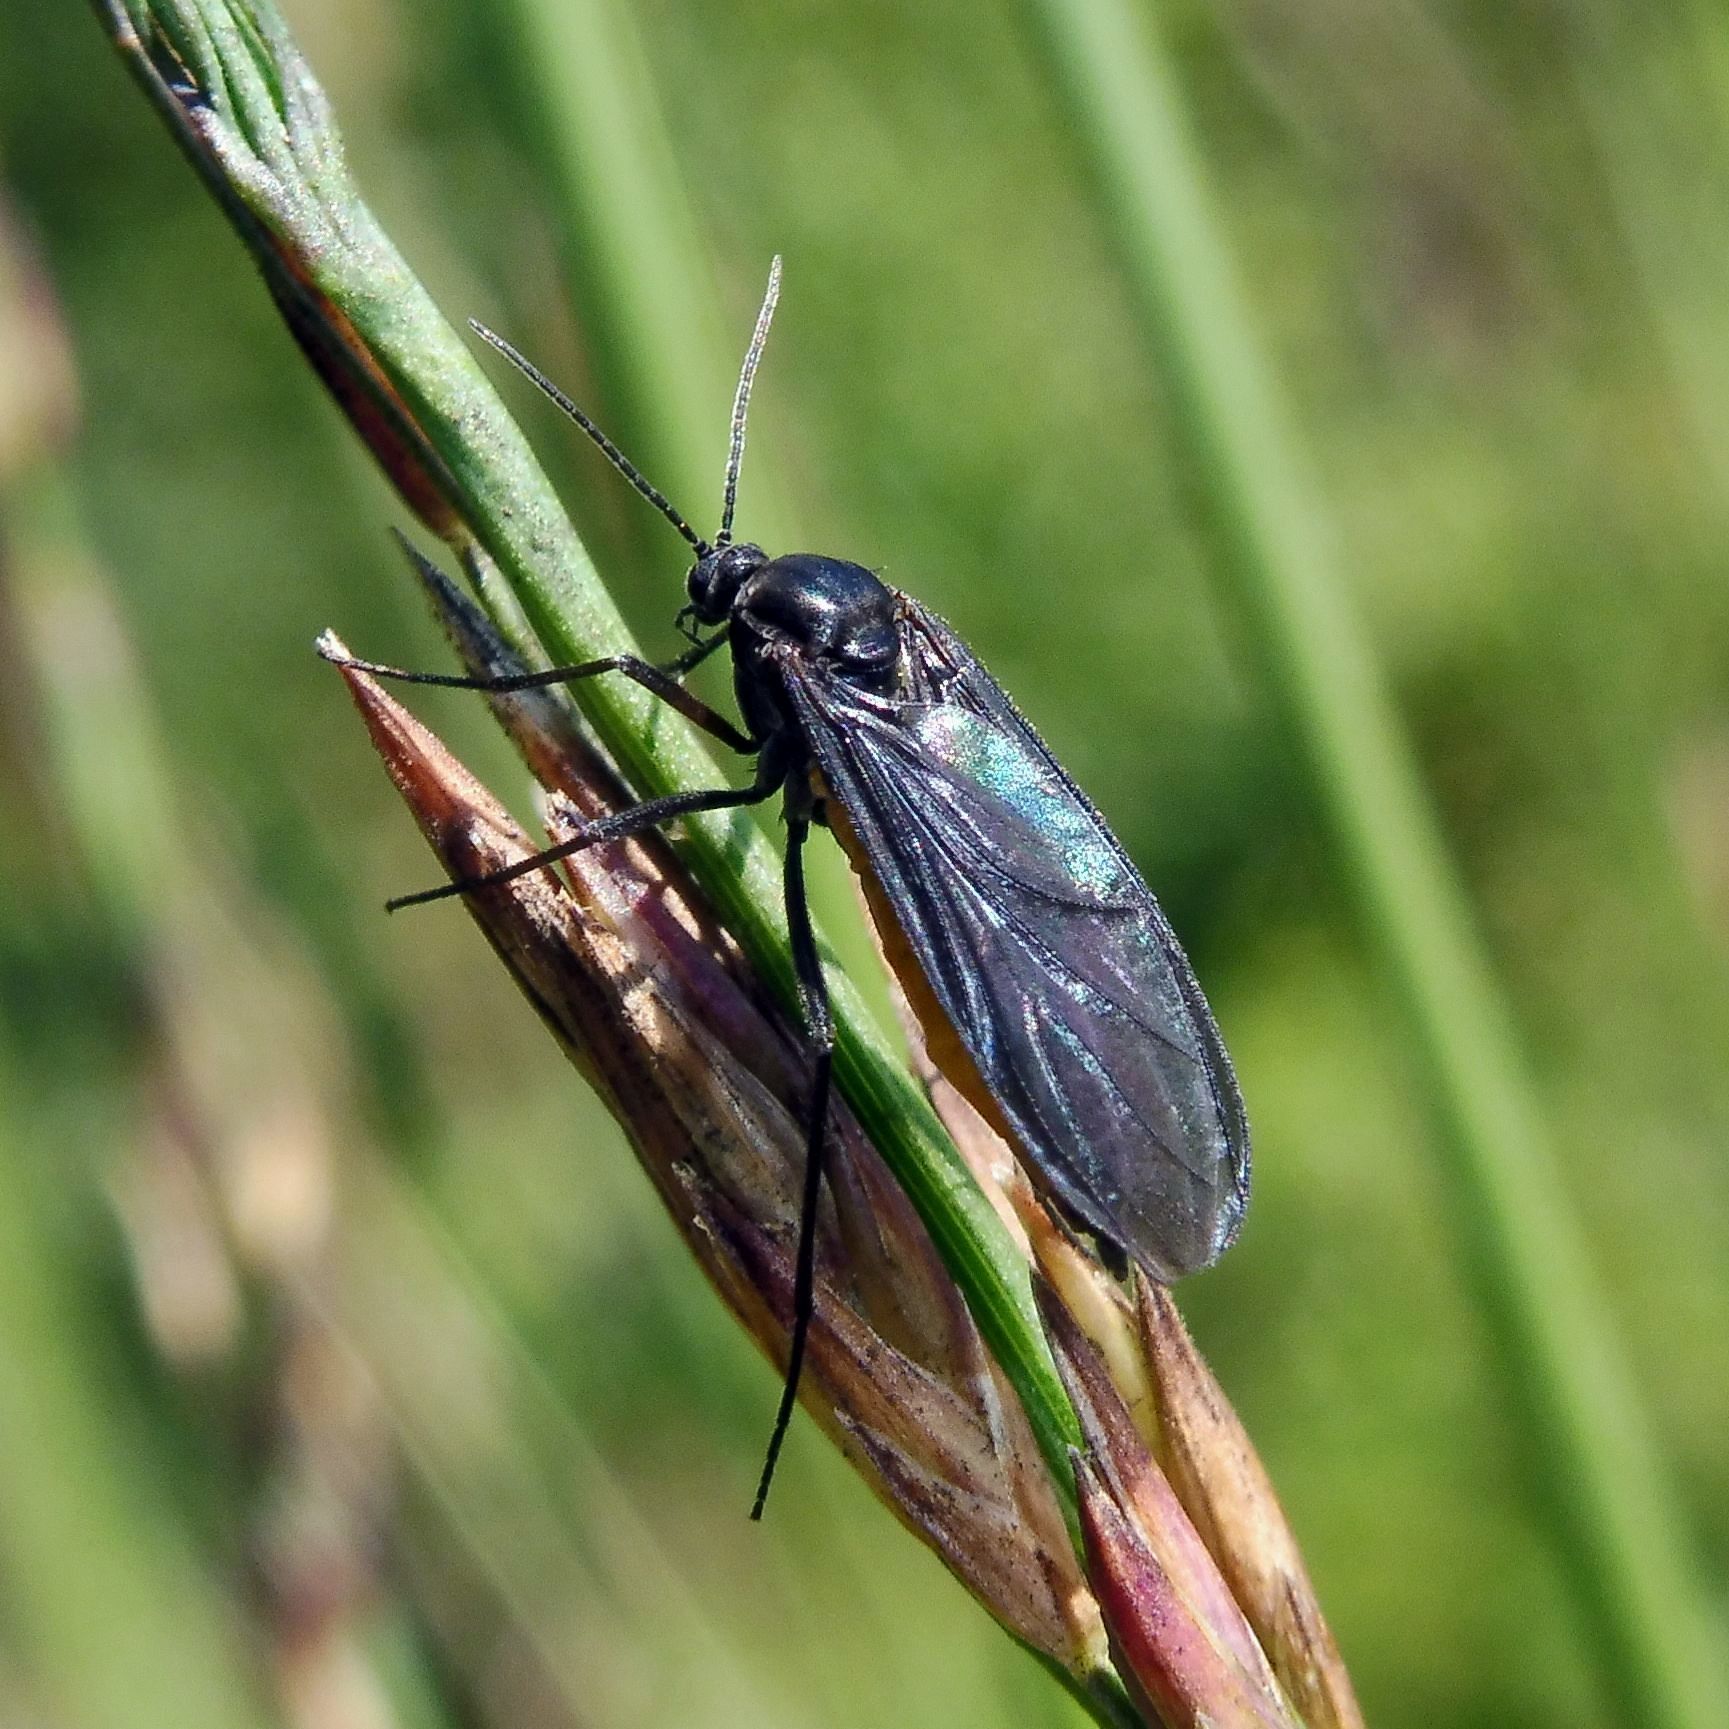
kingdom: Animalia
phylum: Arthropoda
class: Insecta
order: Diptera
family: Sciaridae
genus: Sciara
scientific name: Sciara hemerobioides
